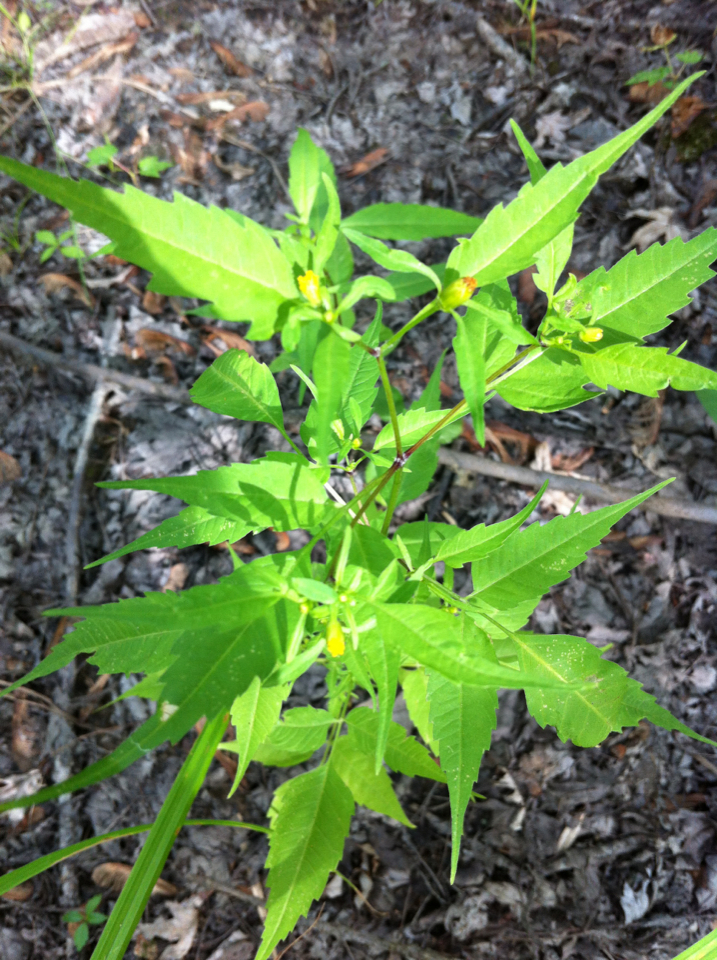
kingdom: Plantae
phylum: Tracheophyta
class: Magnoliopsida
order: Asterales
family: Asteraceae
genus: Bidens
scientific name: Bidens frondosa
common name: Beggarticks
